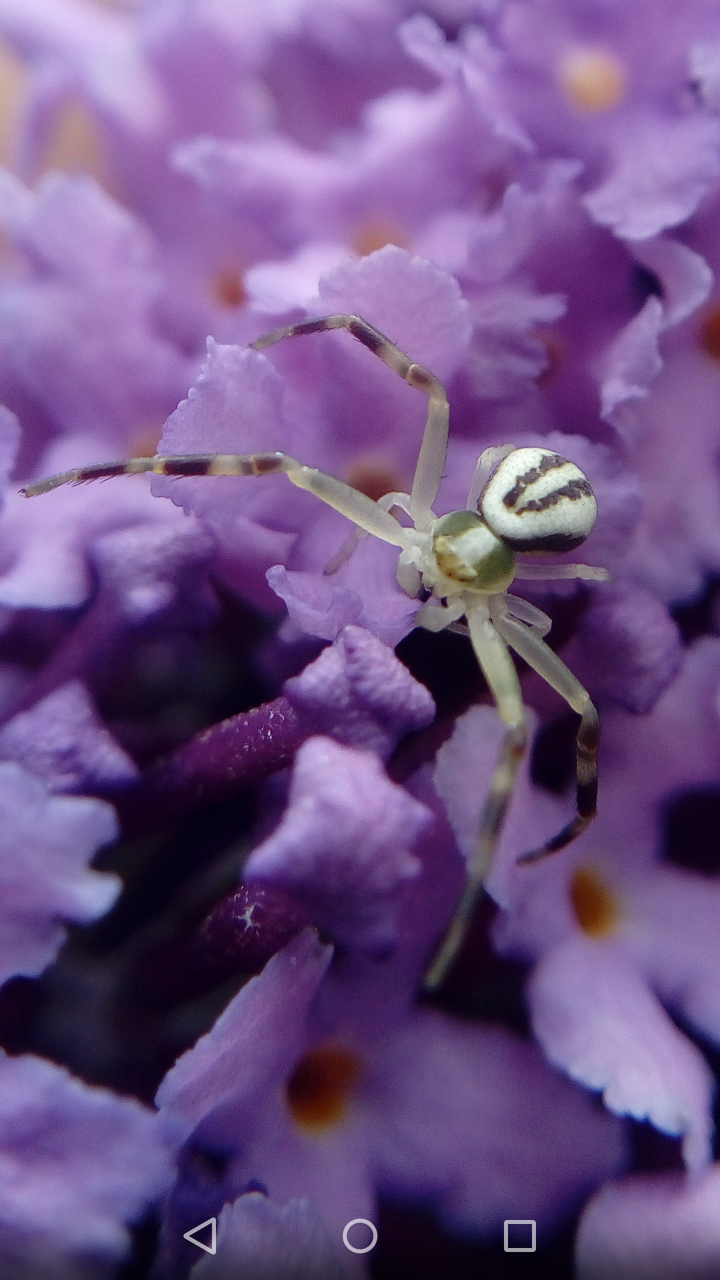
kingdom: Animalia
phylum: Arthropoda
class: Arachnida
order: Araneae
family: Thomisidae
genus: Misumena
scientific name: Misumena vatia
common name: Goldenrod crab spider
